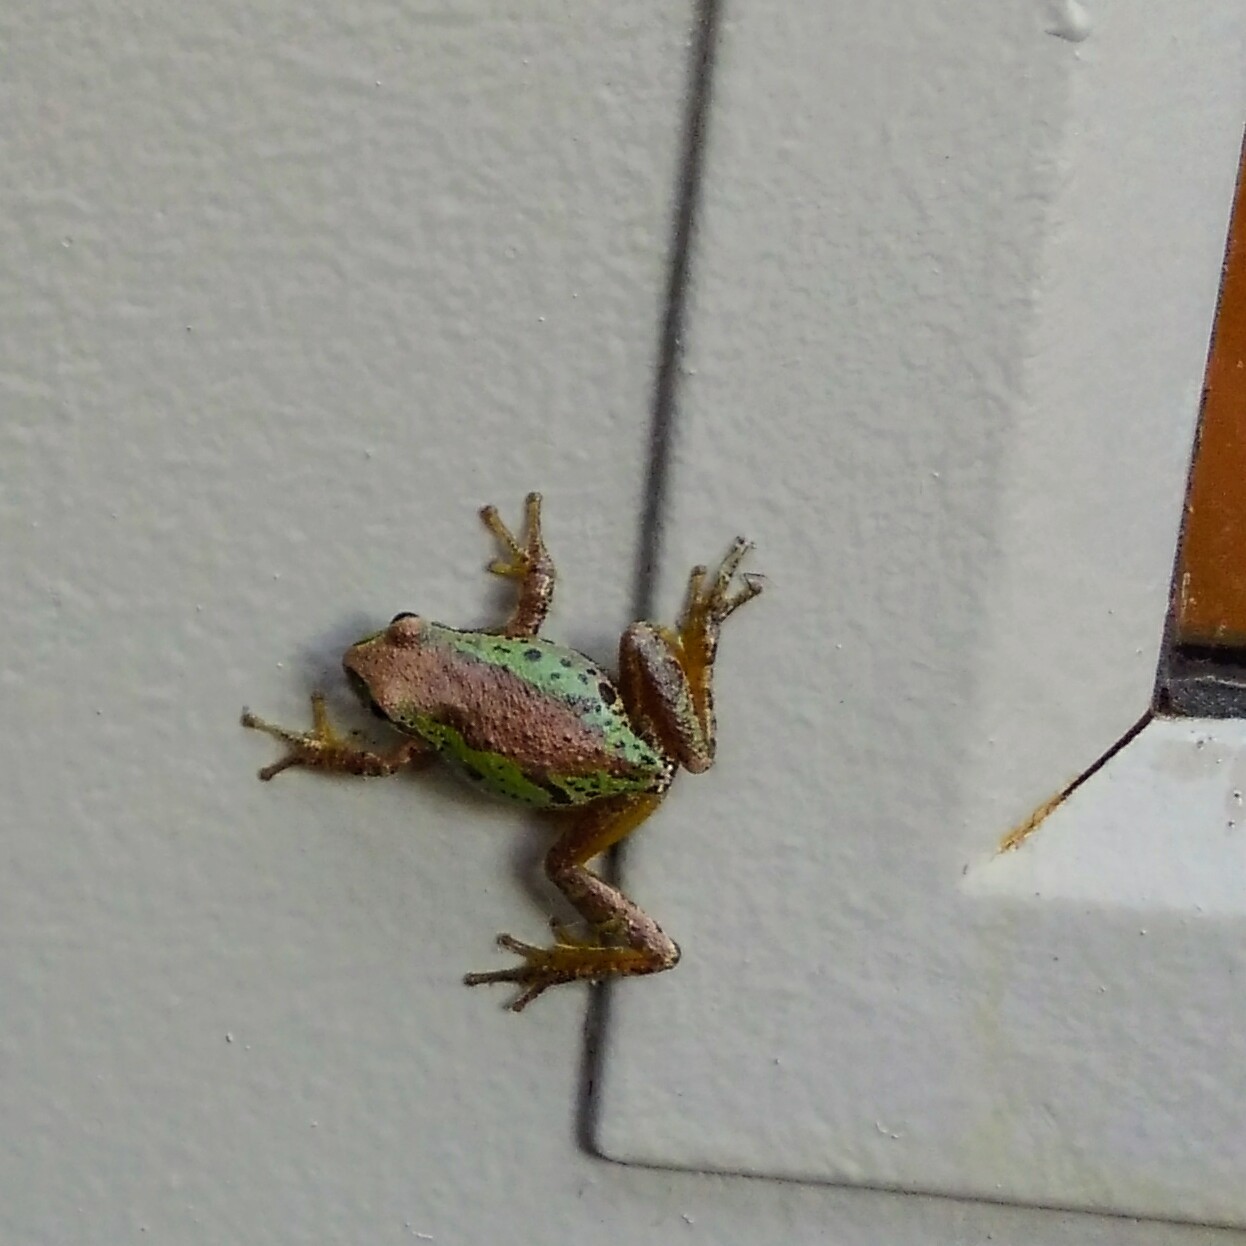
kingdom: Animalia
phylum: Chordata
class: Amphibia
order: Anura
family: Hylidae
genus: Pseudacris
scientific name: Pseudacris regilla
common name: Pacific chorus frog
